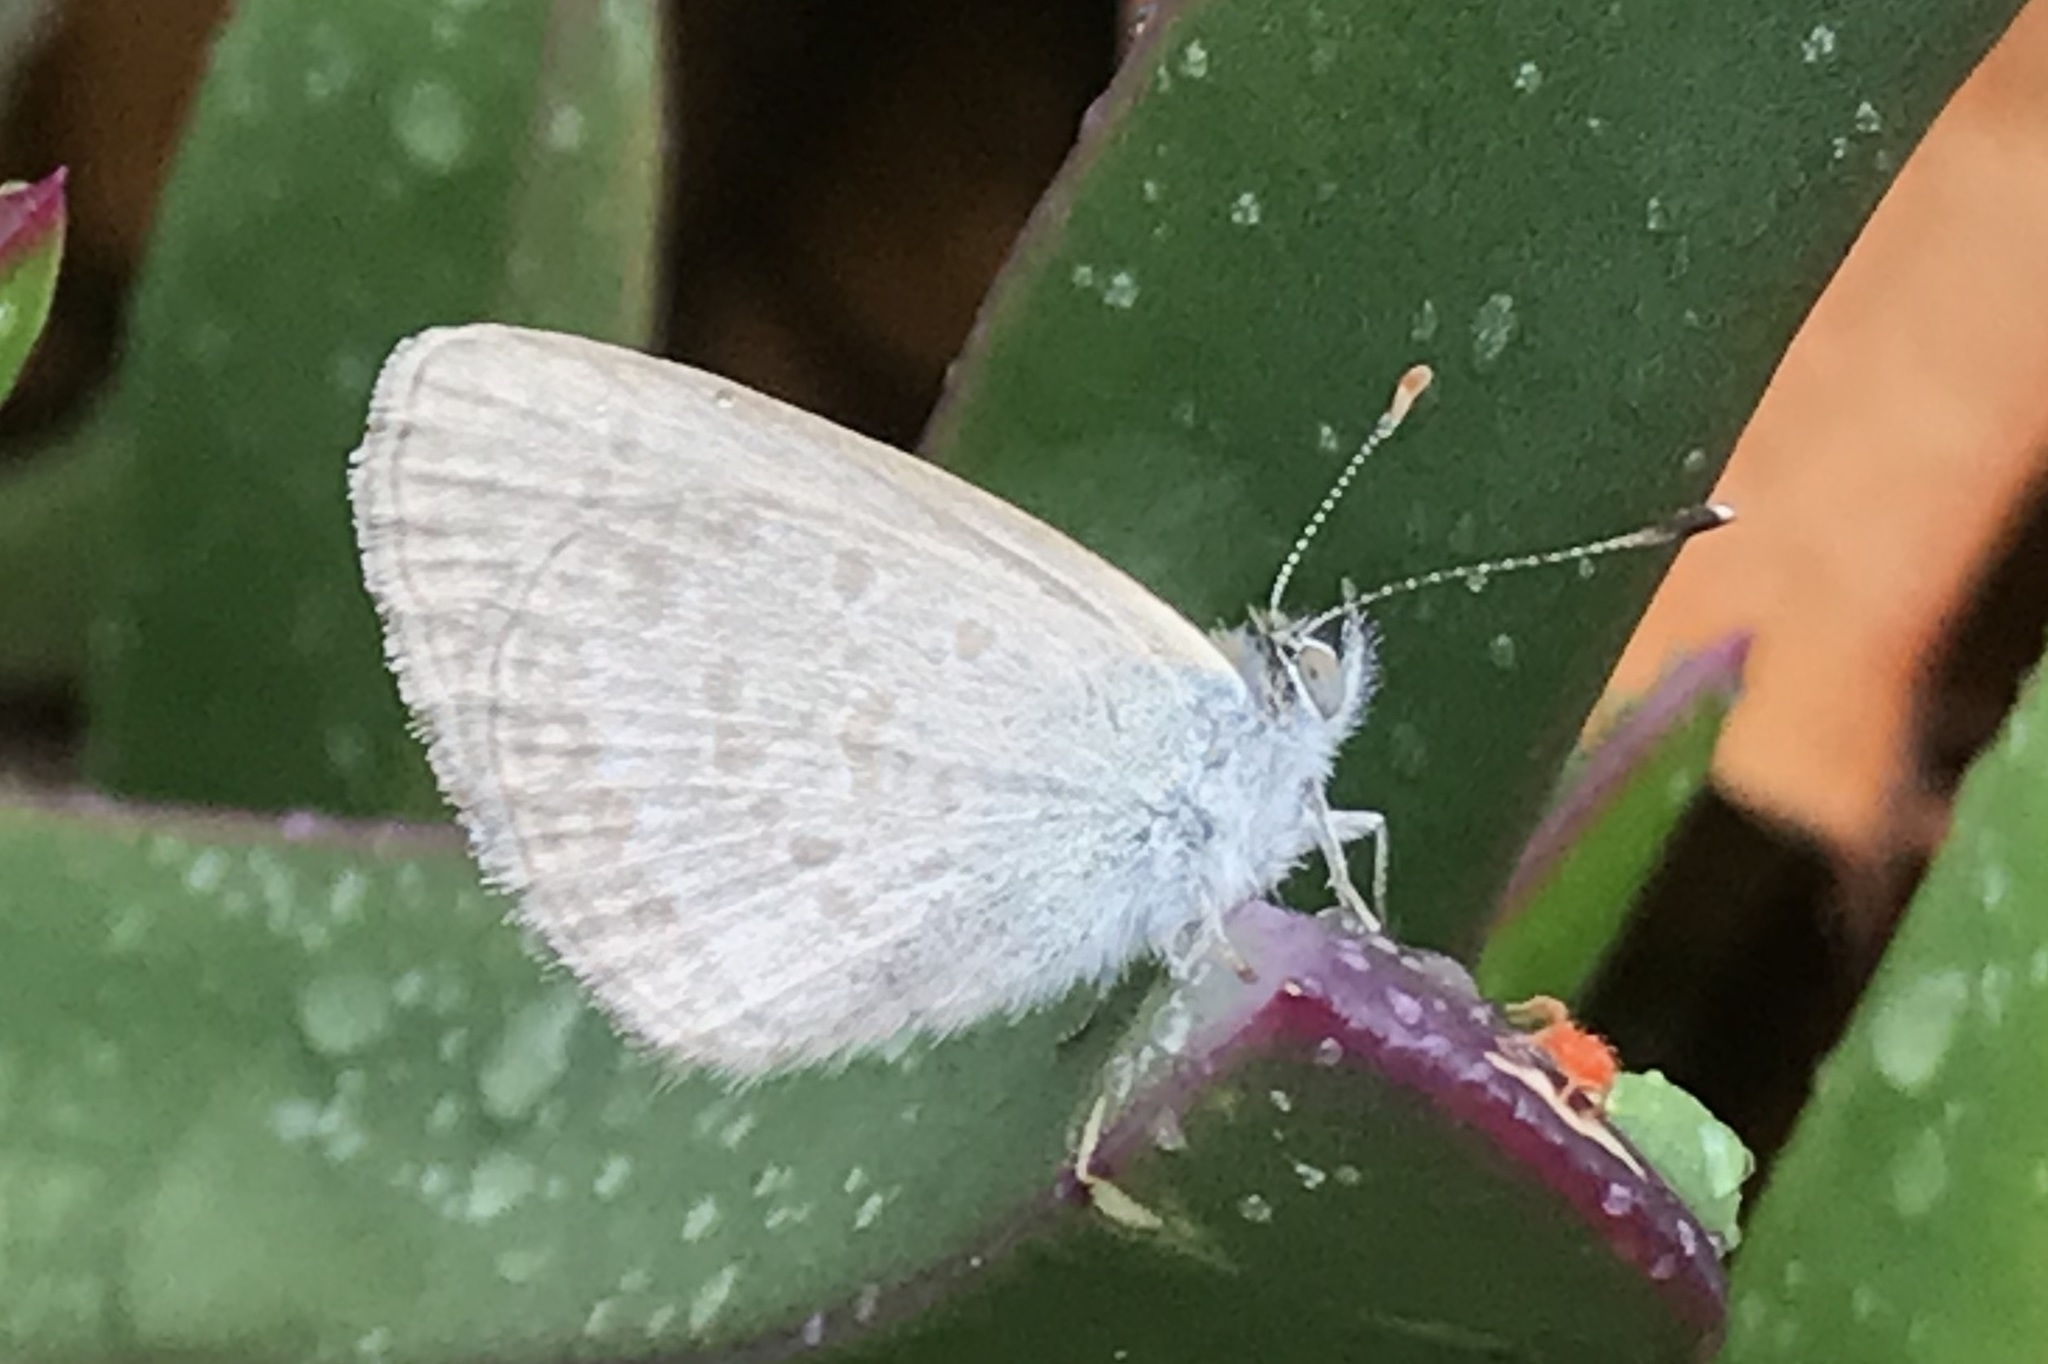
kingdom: Animalia
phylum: Arthropoda
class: Insecta
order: Lepidoptera
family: Lycaenidae
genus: Zizina
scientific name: Zizina labradus
